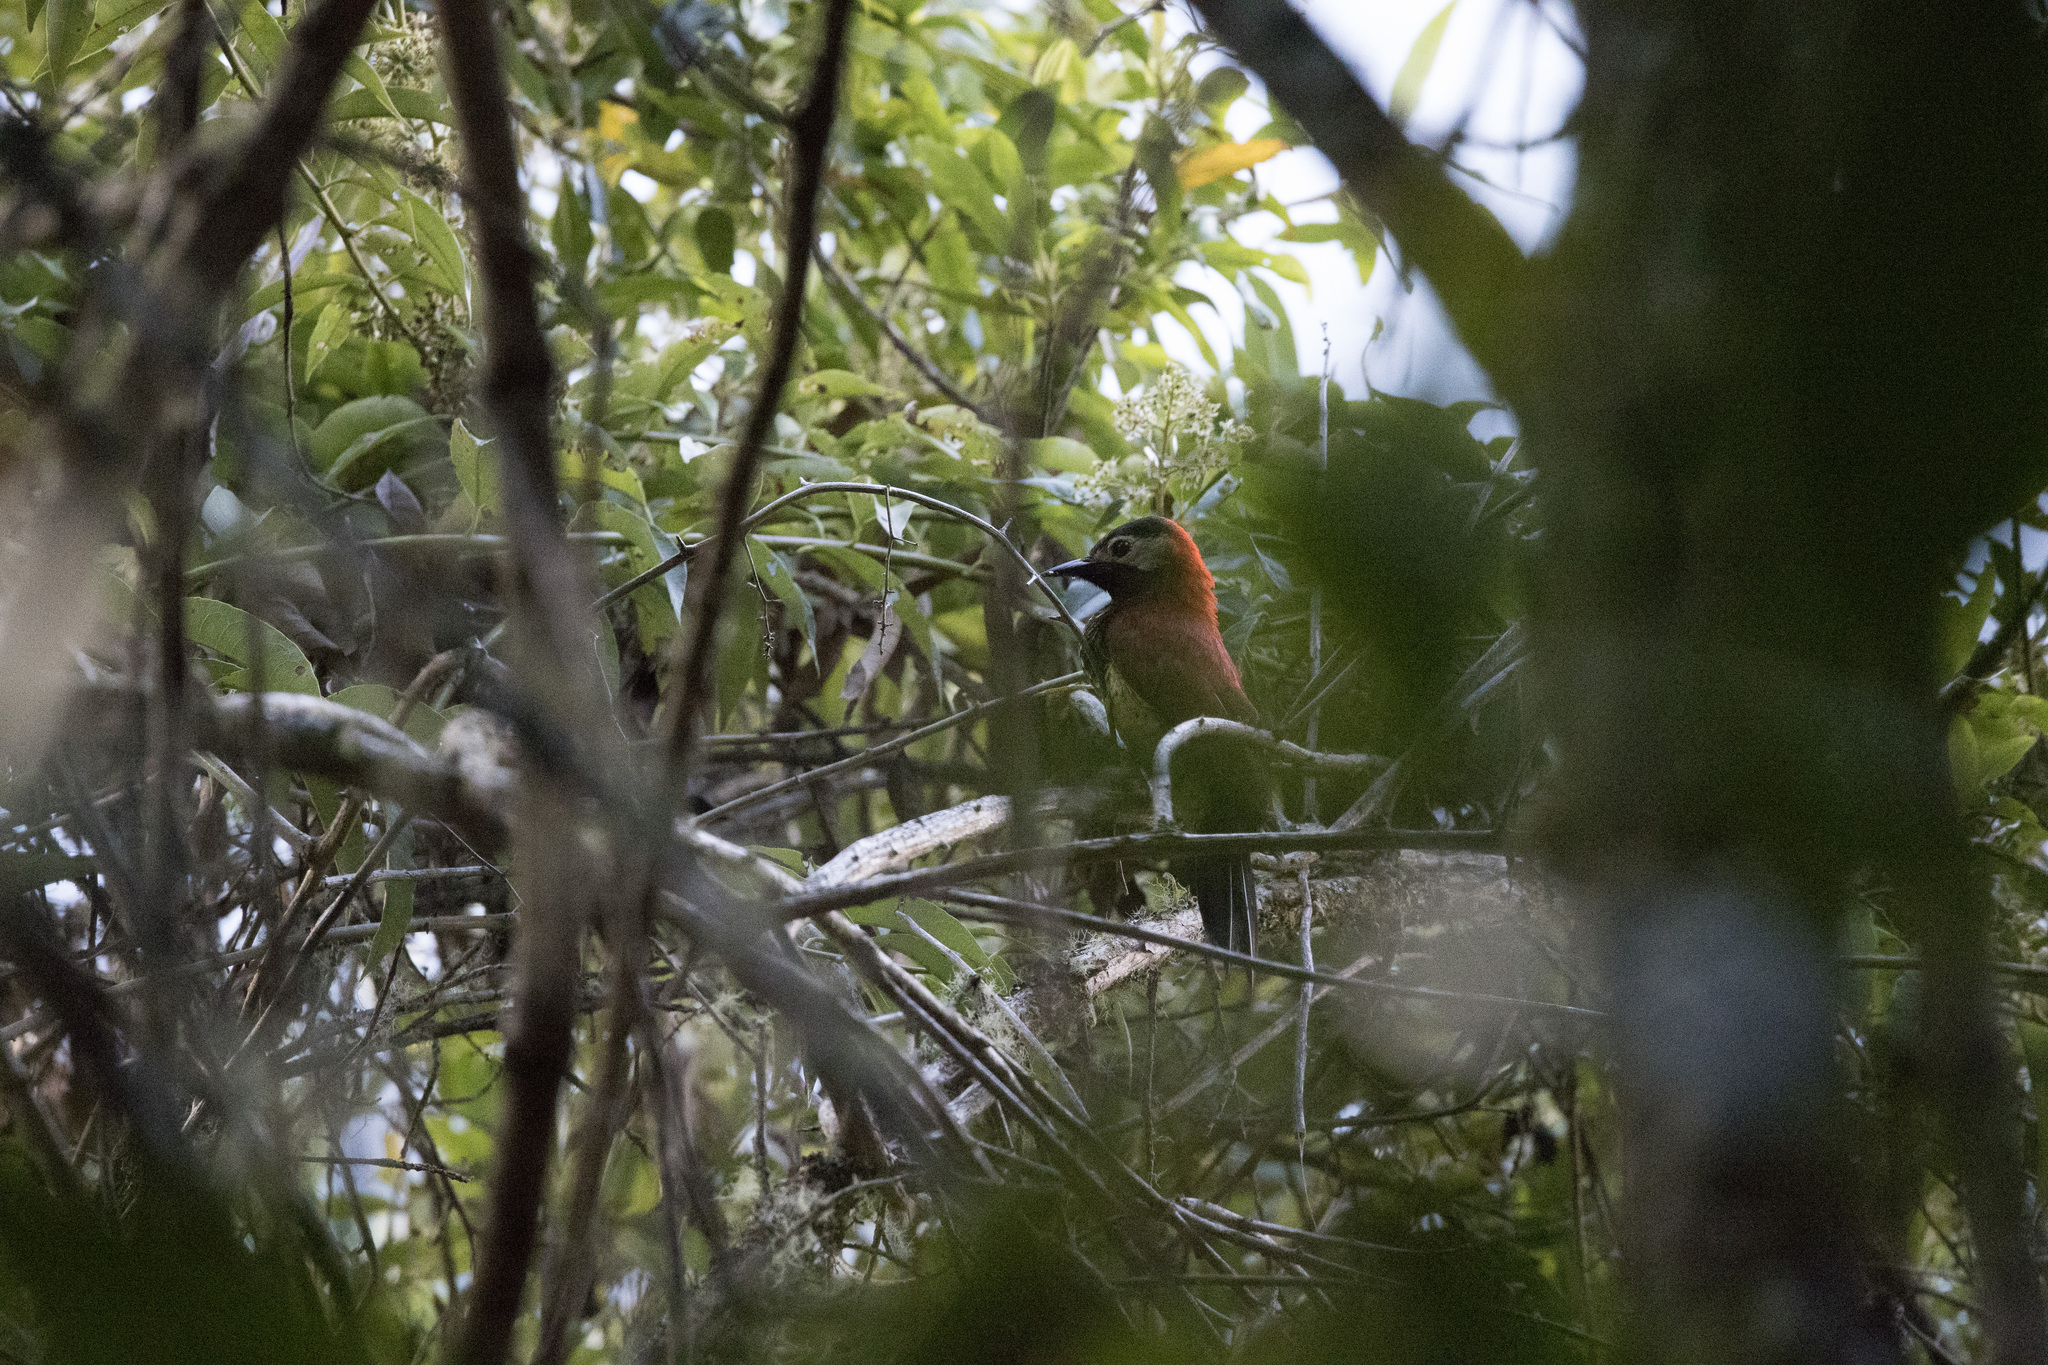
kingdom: Animalia
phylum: Chordata
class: Aves
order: Piciformes
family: Picidae
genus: Colaptes
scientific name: Colaptes rivolii
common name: Crimson-mantled woodpecker
